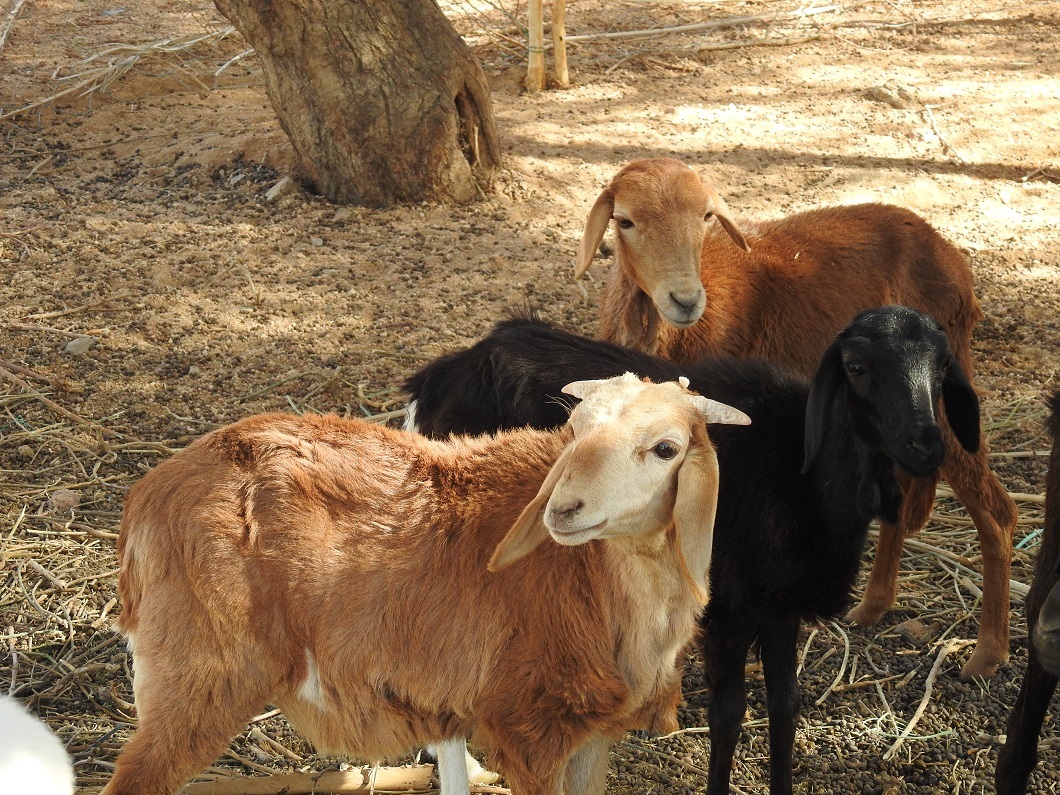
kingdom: Animalia
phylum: Chordata
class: Mammalia
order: Artiodactyla
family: Bovidae
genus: Capra
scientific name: Capra hircus
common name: Domestic goat
